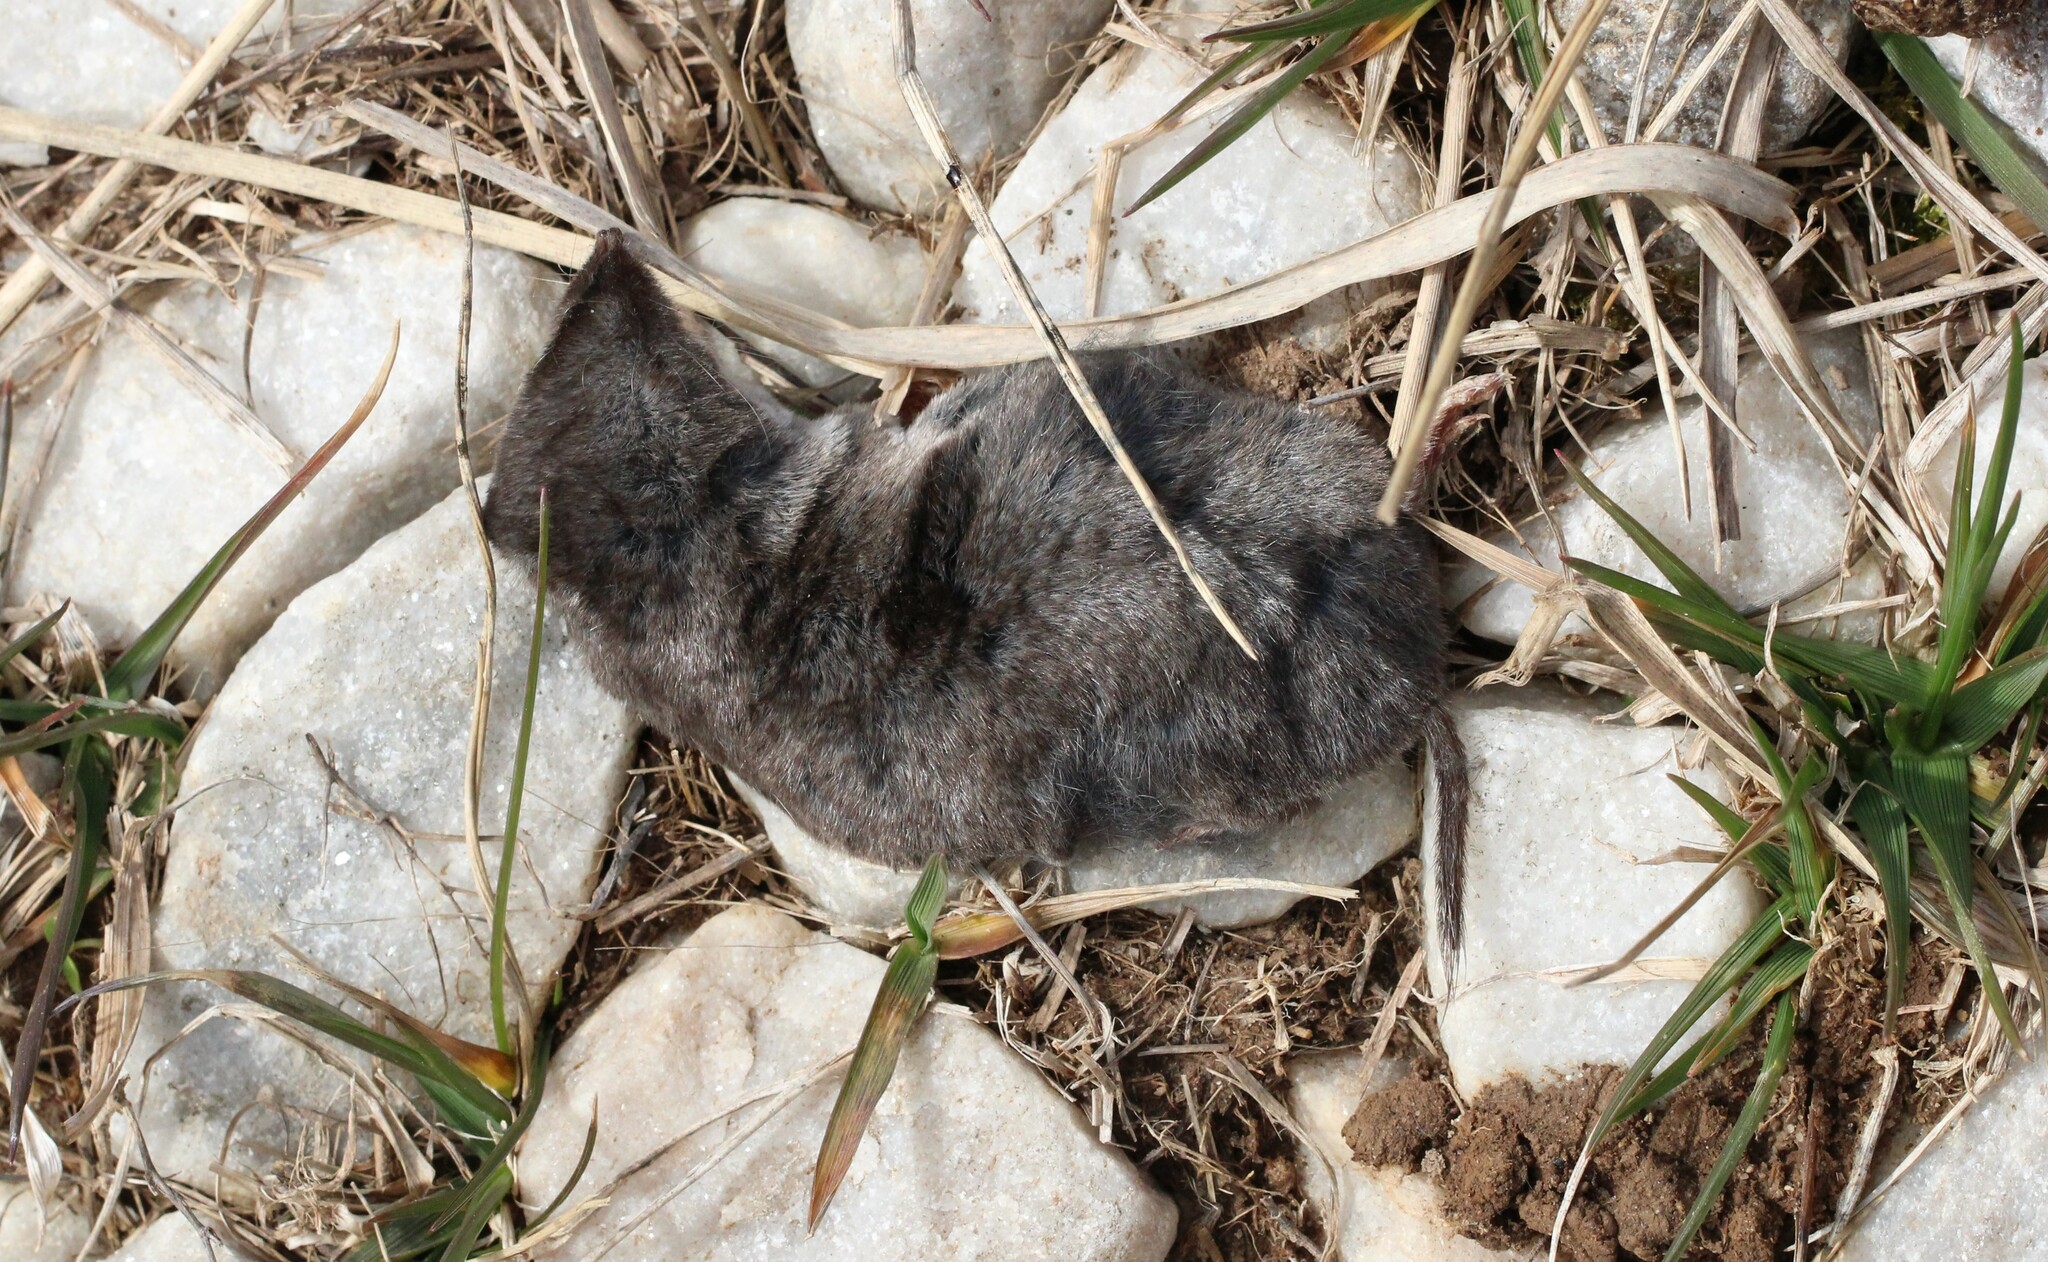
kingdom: Animalia
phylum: Chordata
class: Mammalia
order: Soricomorpha
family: Soricidae
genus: Blarina
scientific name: Blarina brevicauda
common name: Northern short-tailed shrew
